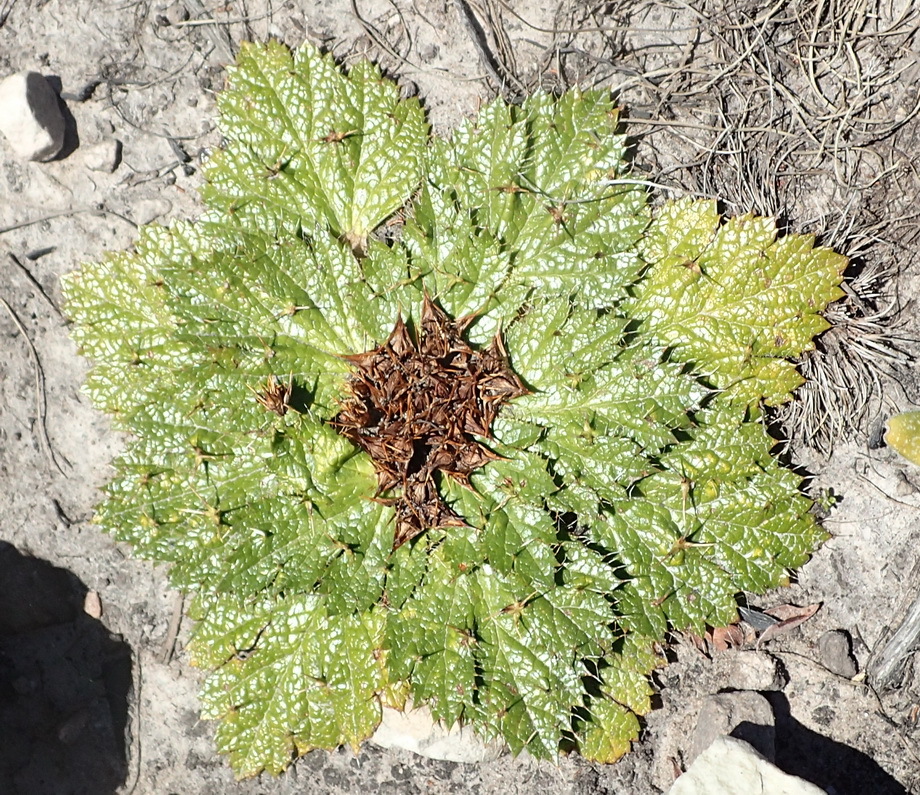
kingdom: Plantae
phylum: Tracheophyta
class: Magnoliopsida
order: Apiales
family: Apiaceae
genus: Arctopus
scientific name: Arctopus echinatus
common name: Platdoring
